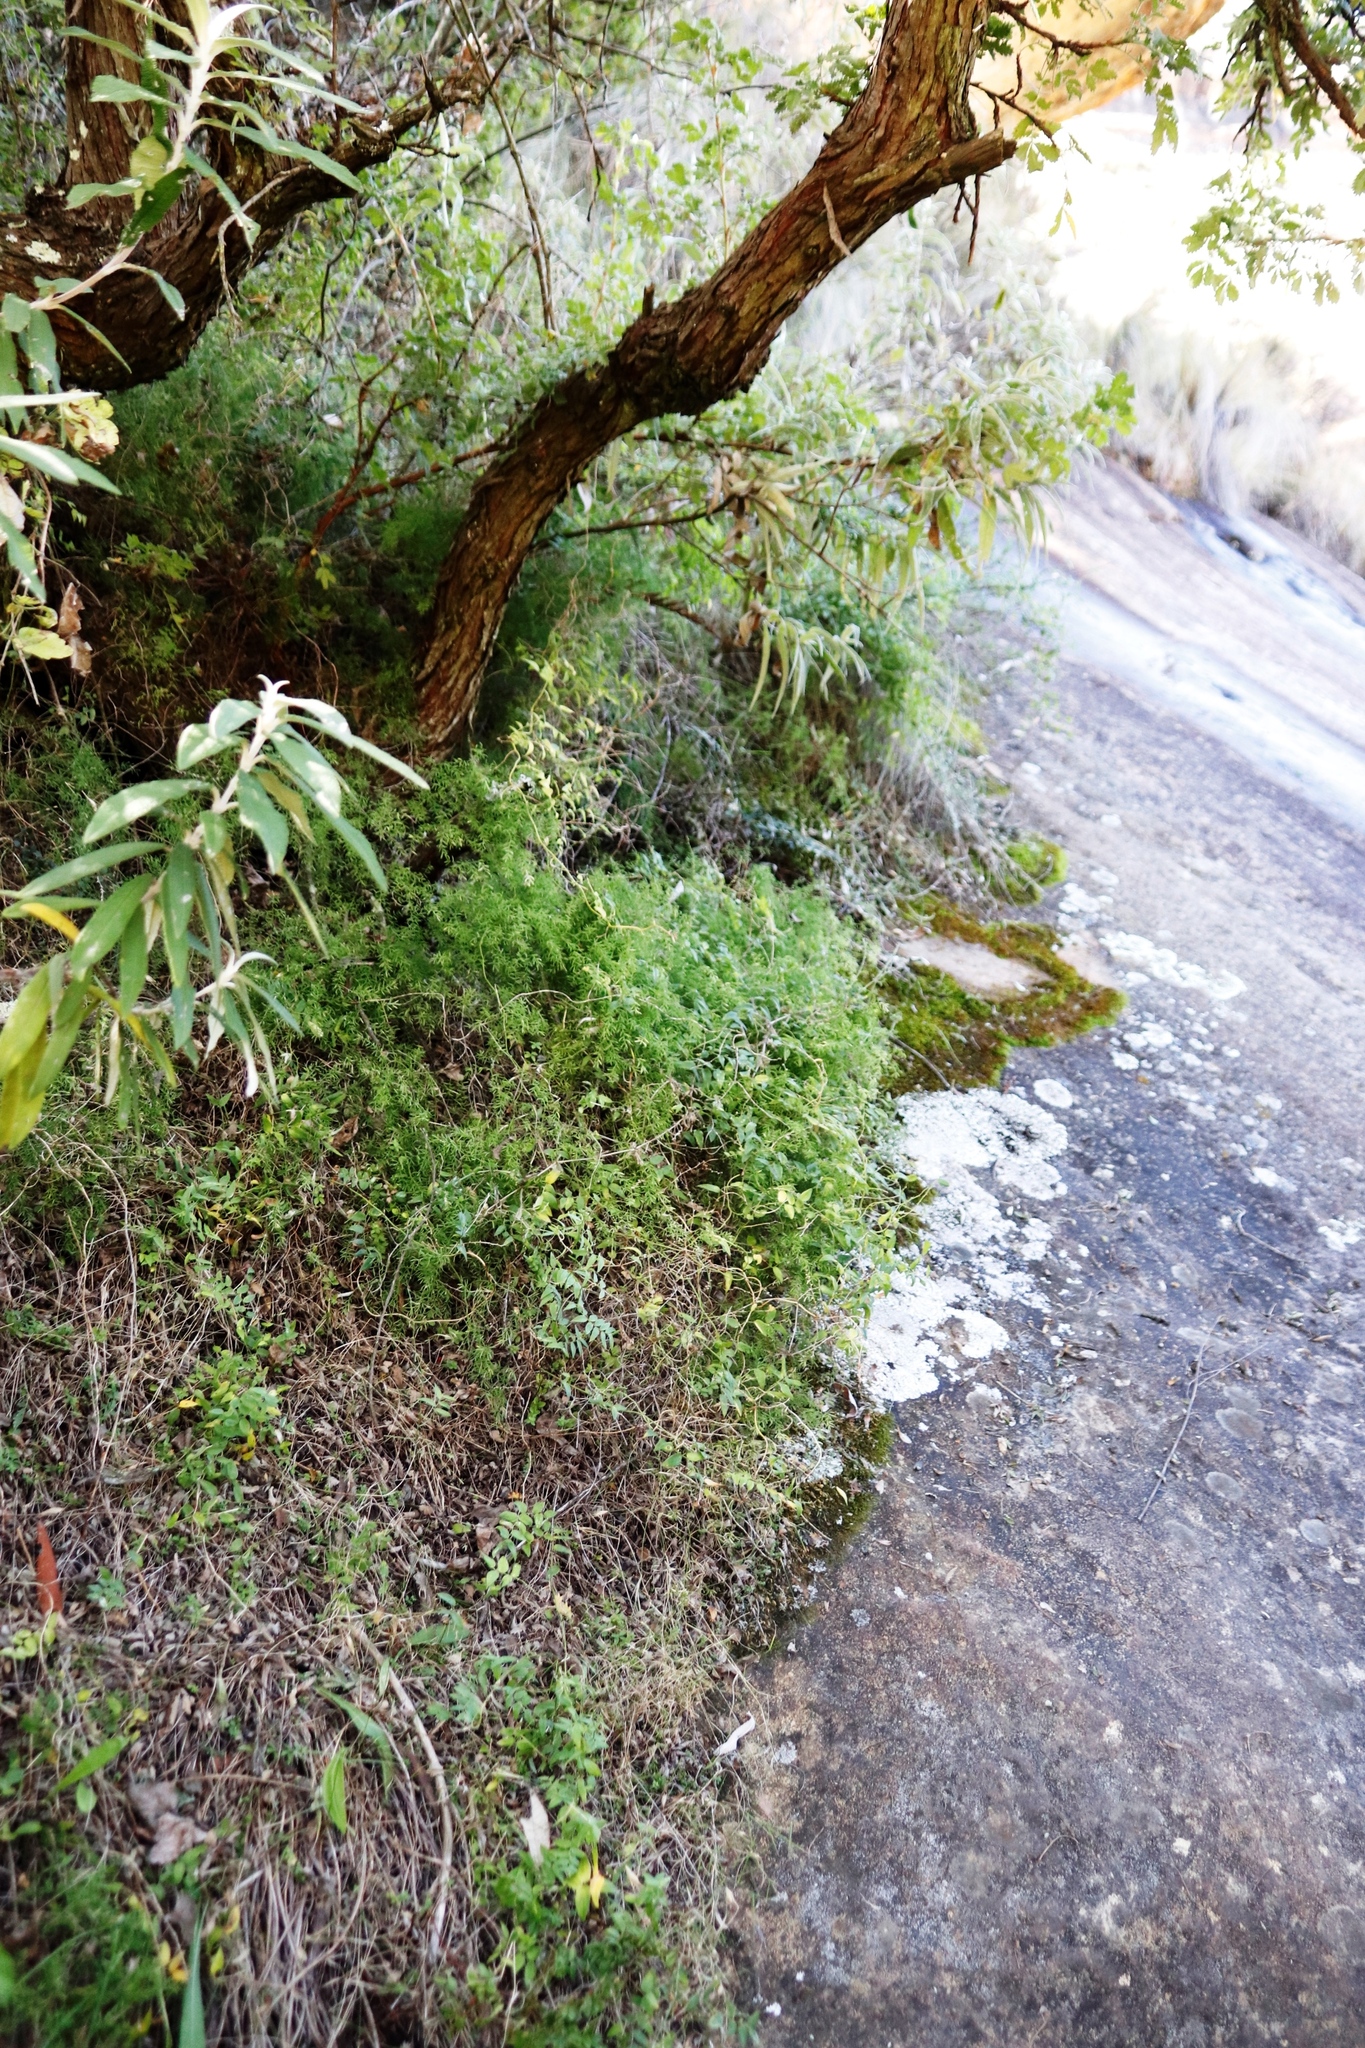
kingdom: Plantae
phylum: Tracheophyta
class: Liliopsida
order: Asparagales
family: Asparagaceae
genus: Asparagus
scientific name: Asparagus ramosissimus
